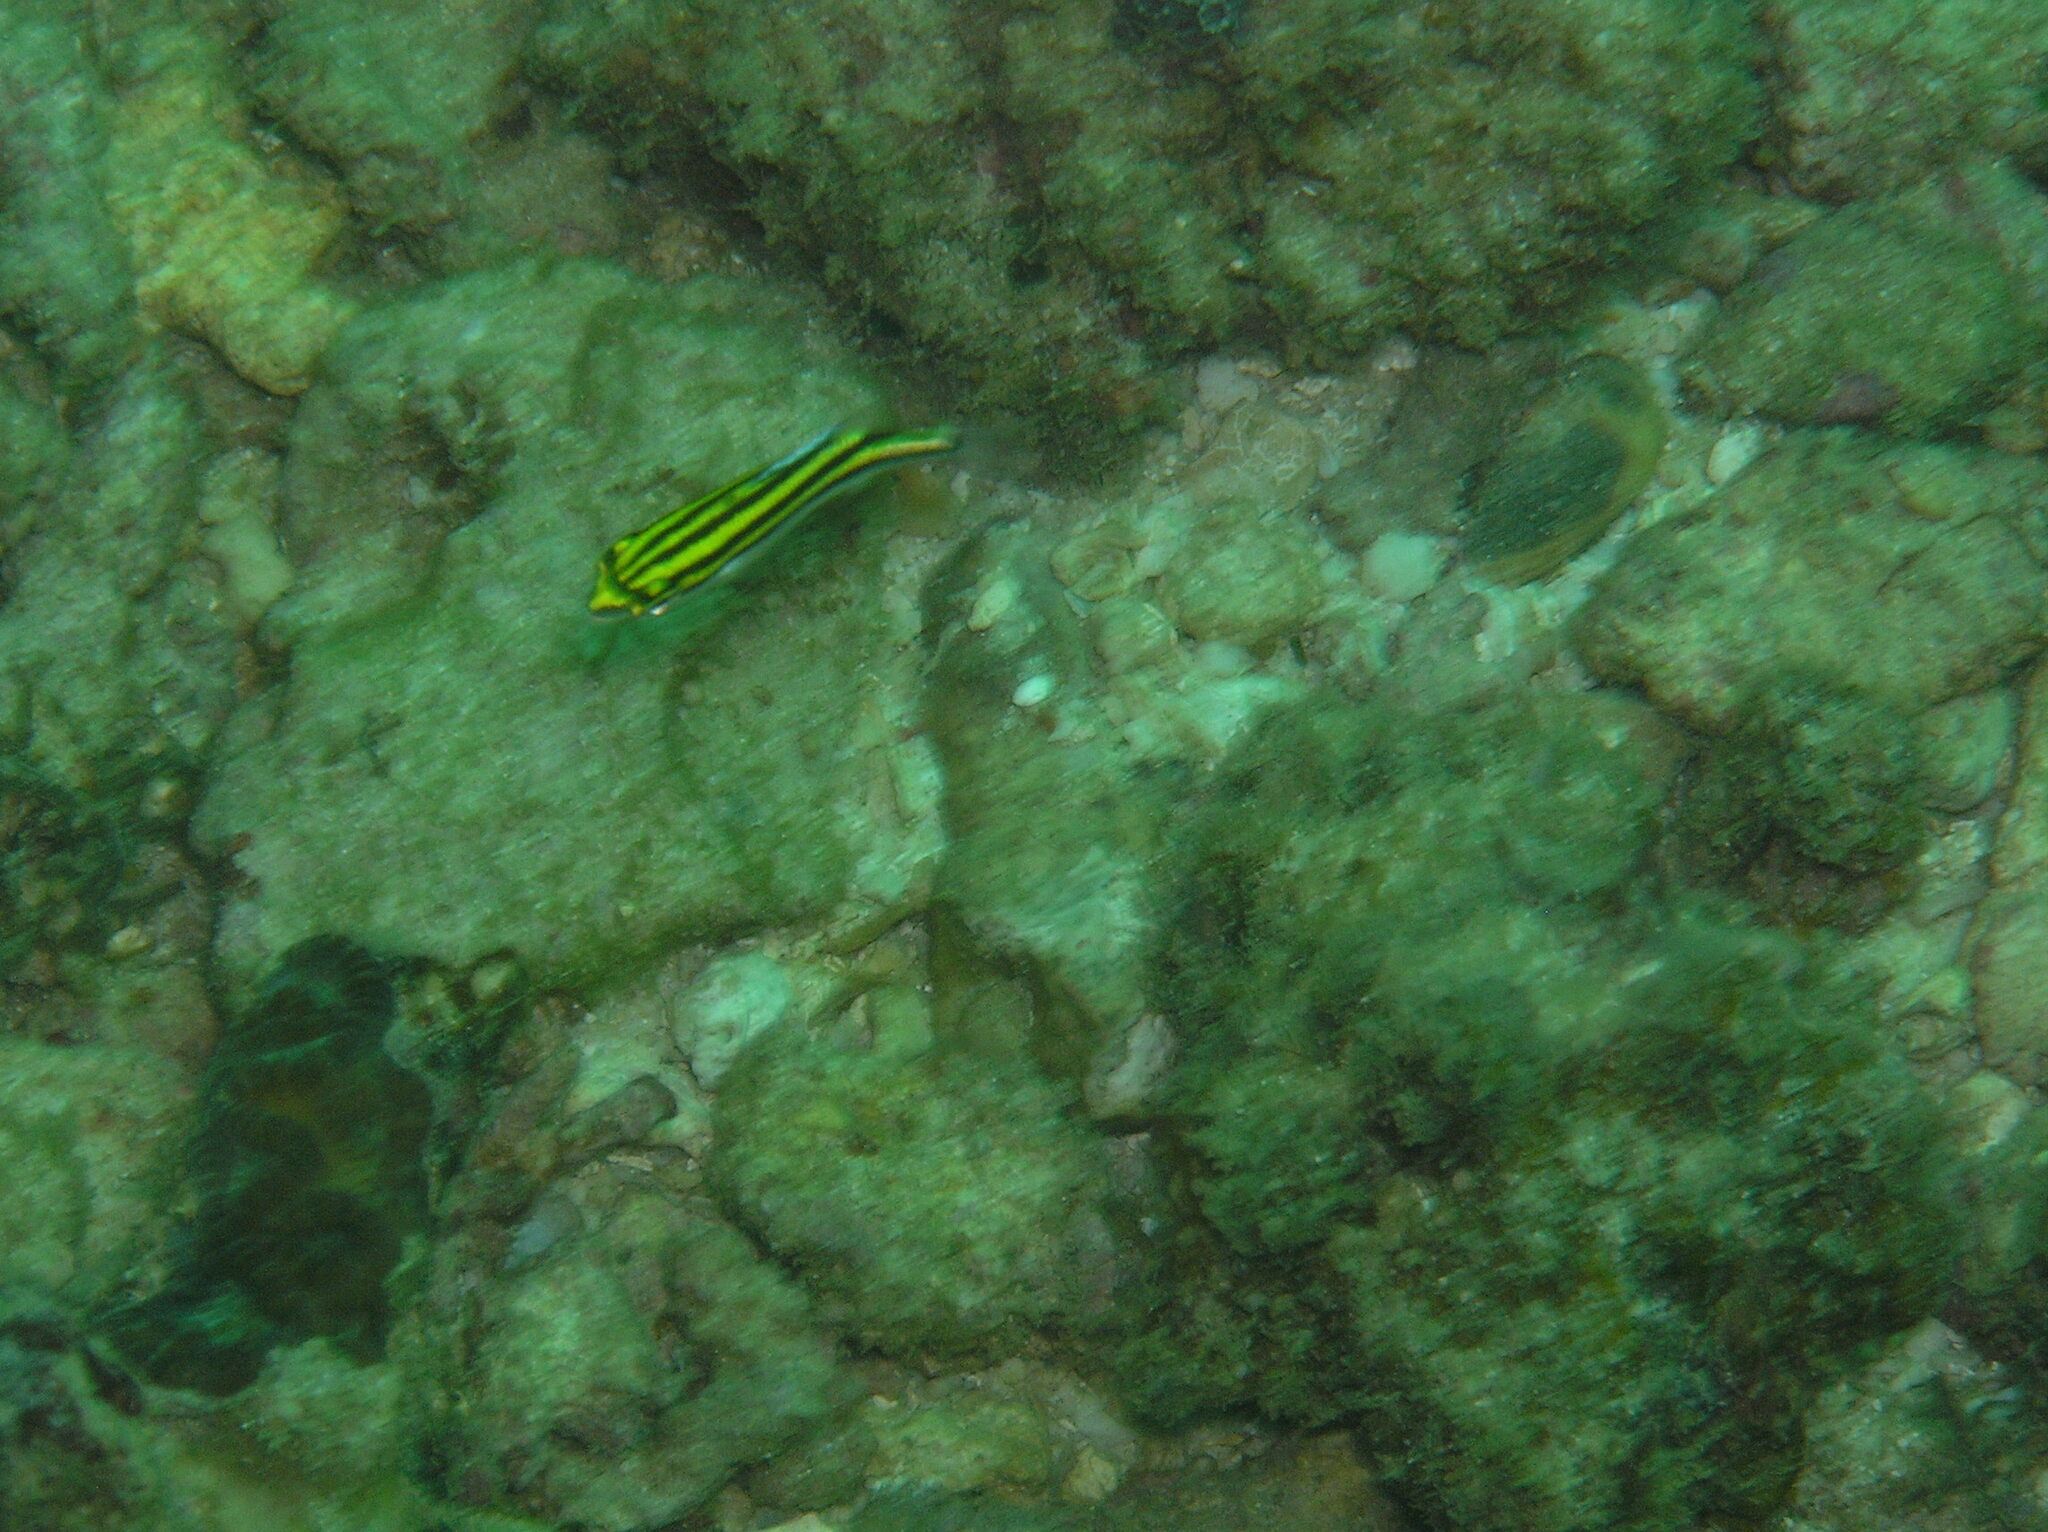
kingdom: Animalia
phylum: Chordata
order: Perciformes
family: Nemipteridae
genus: Scolopsis
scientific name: Scolopsis bilineata
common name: Two-lined monocle bream
